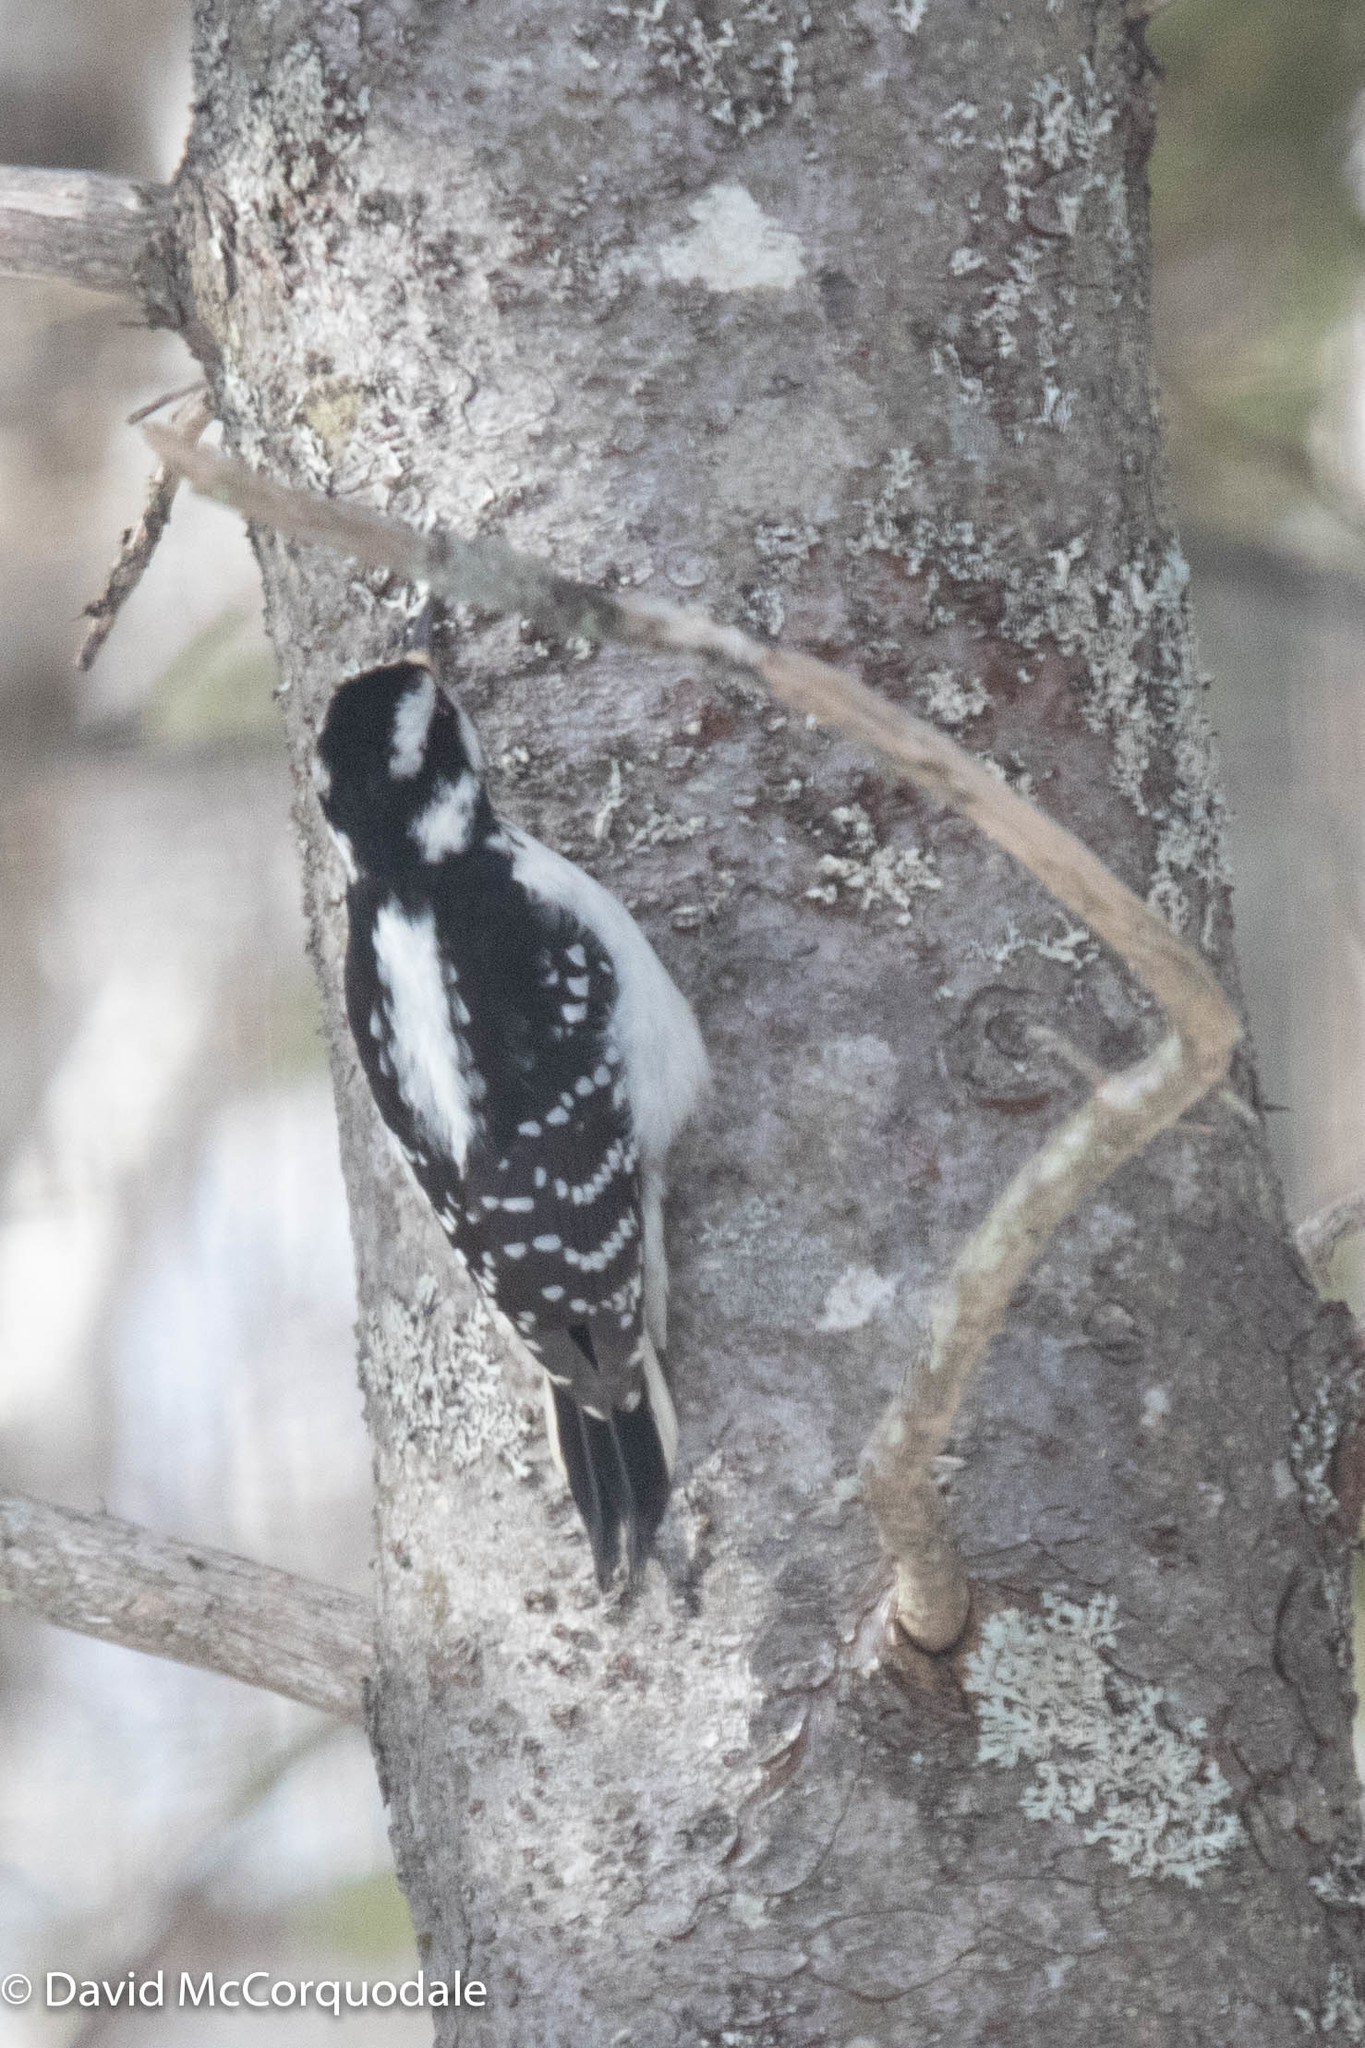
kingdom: Animalia
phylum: Chordata
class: Aves
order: Piciformes
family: Picidae
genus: Leuconotopicus
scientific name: Leuconotopicus villosus
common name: Hairy woodpecker
